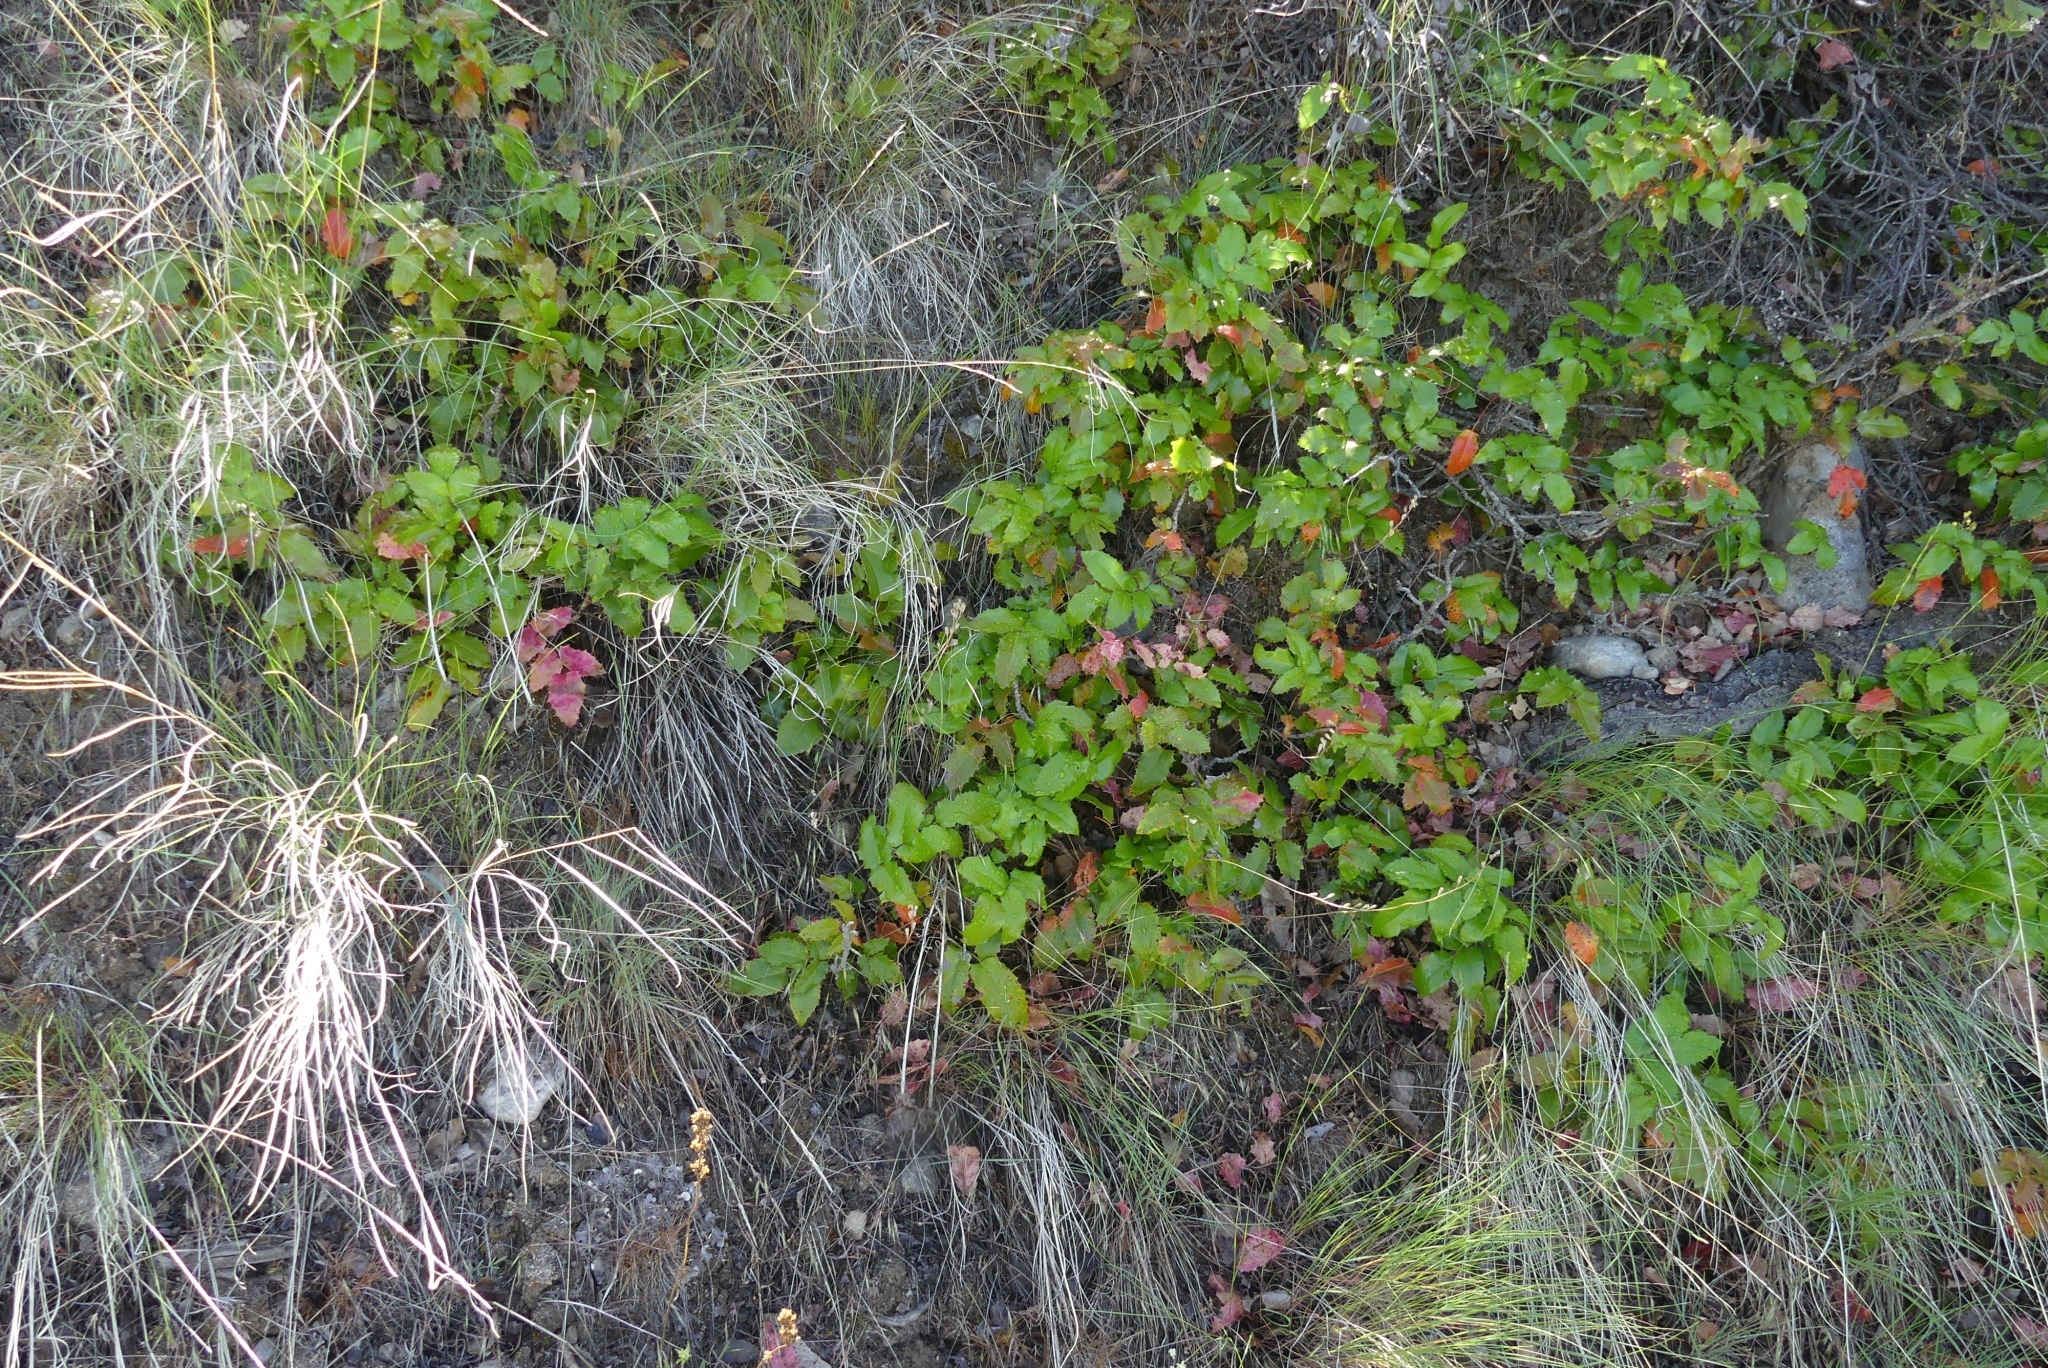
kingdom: Plantae
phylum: Tracheophyta
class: Magnoliopsida
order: Ranunculales
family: Berberidaceae
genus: Mahonia
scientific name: Mahonia aquifolium
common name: Oregon-grape
